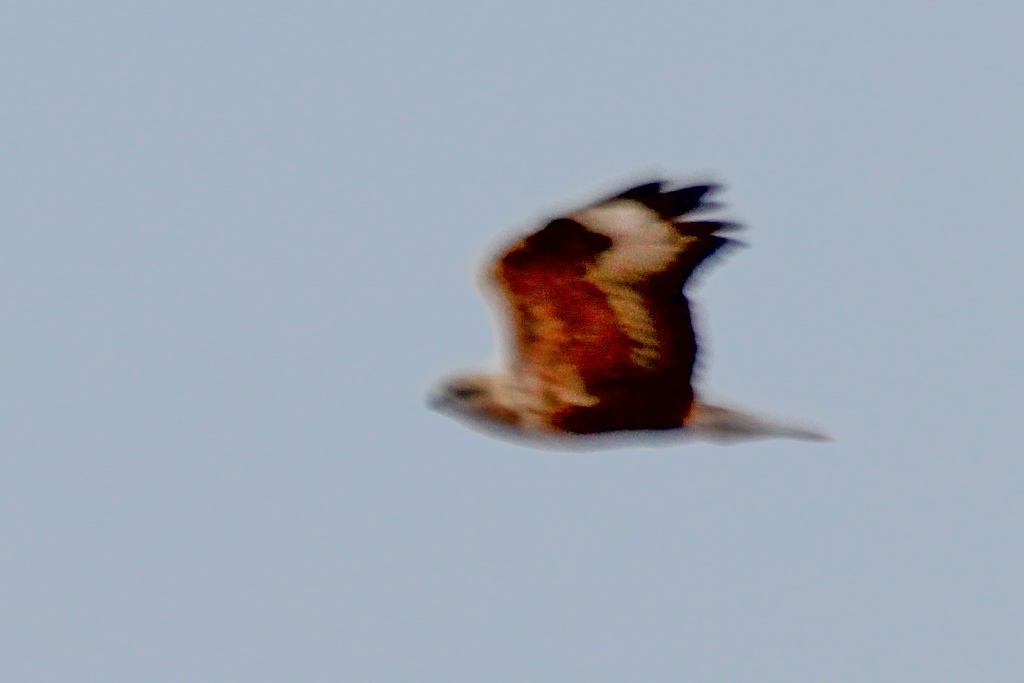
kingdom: Animalia
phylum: Chordata
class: Aves
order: Accipitriformes
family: Accipitridae
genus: Buteo
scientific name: Buteo rufinus
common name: Long-legged buzzard
